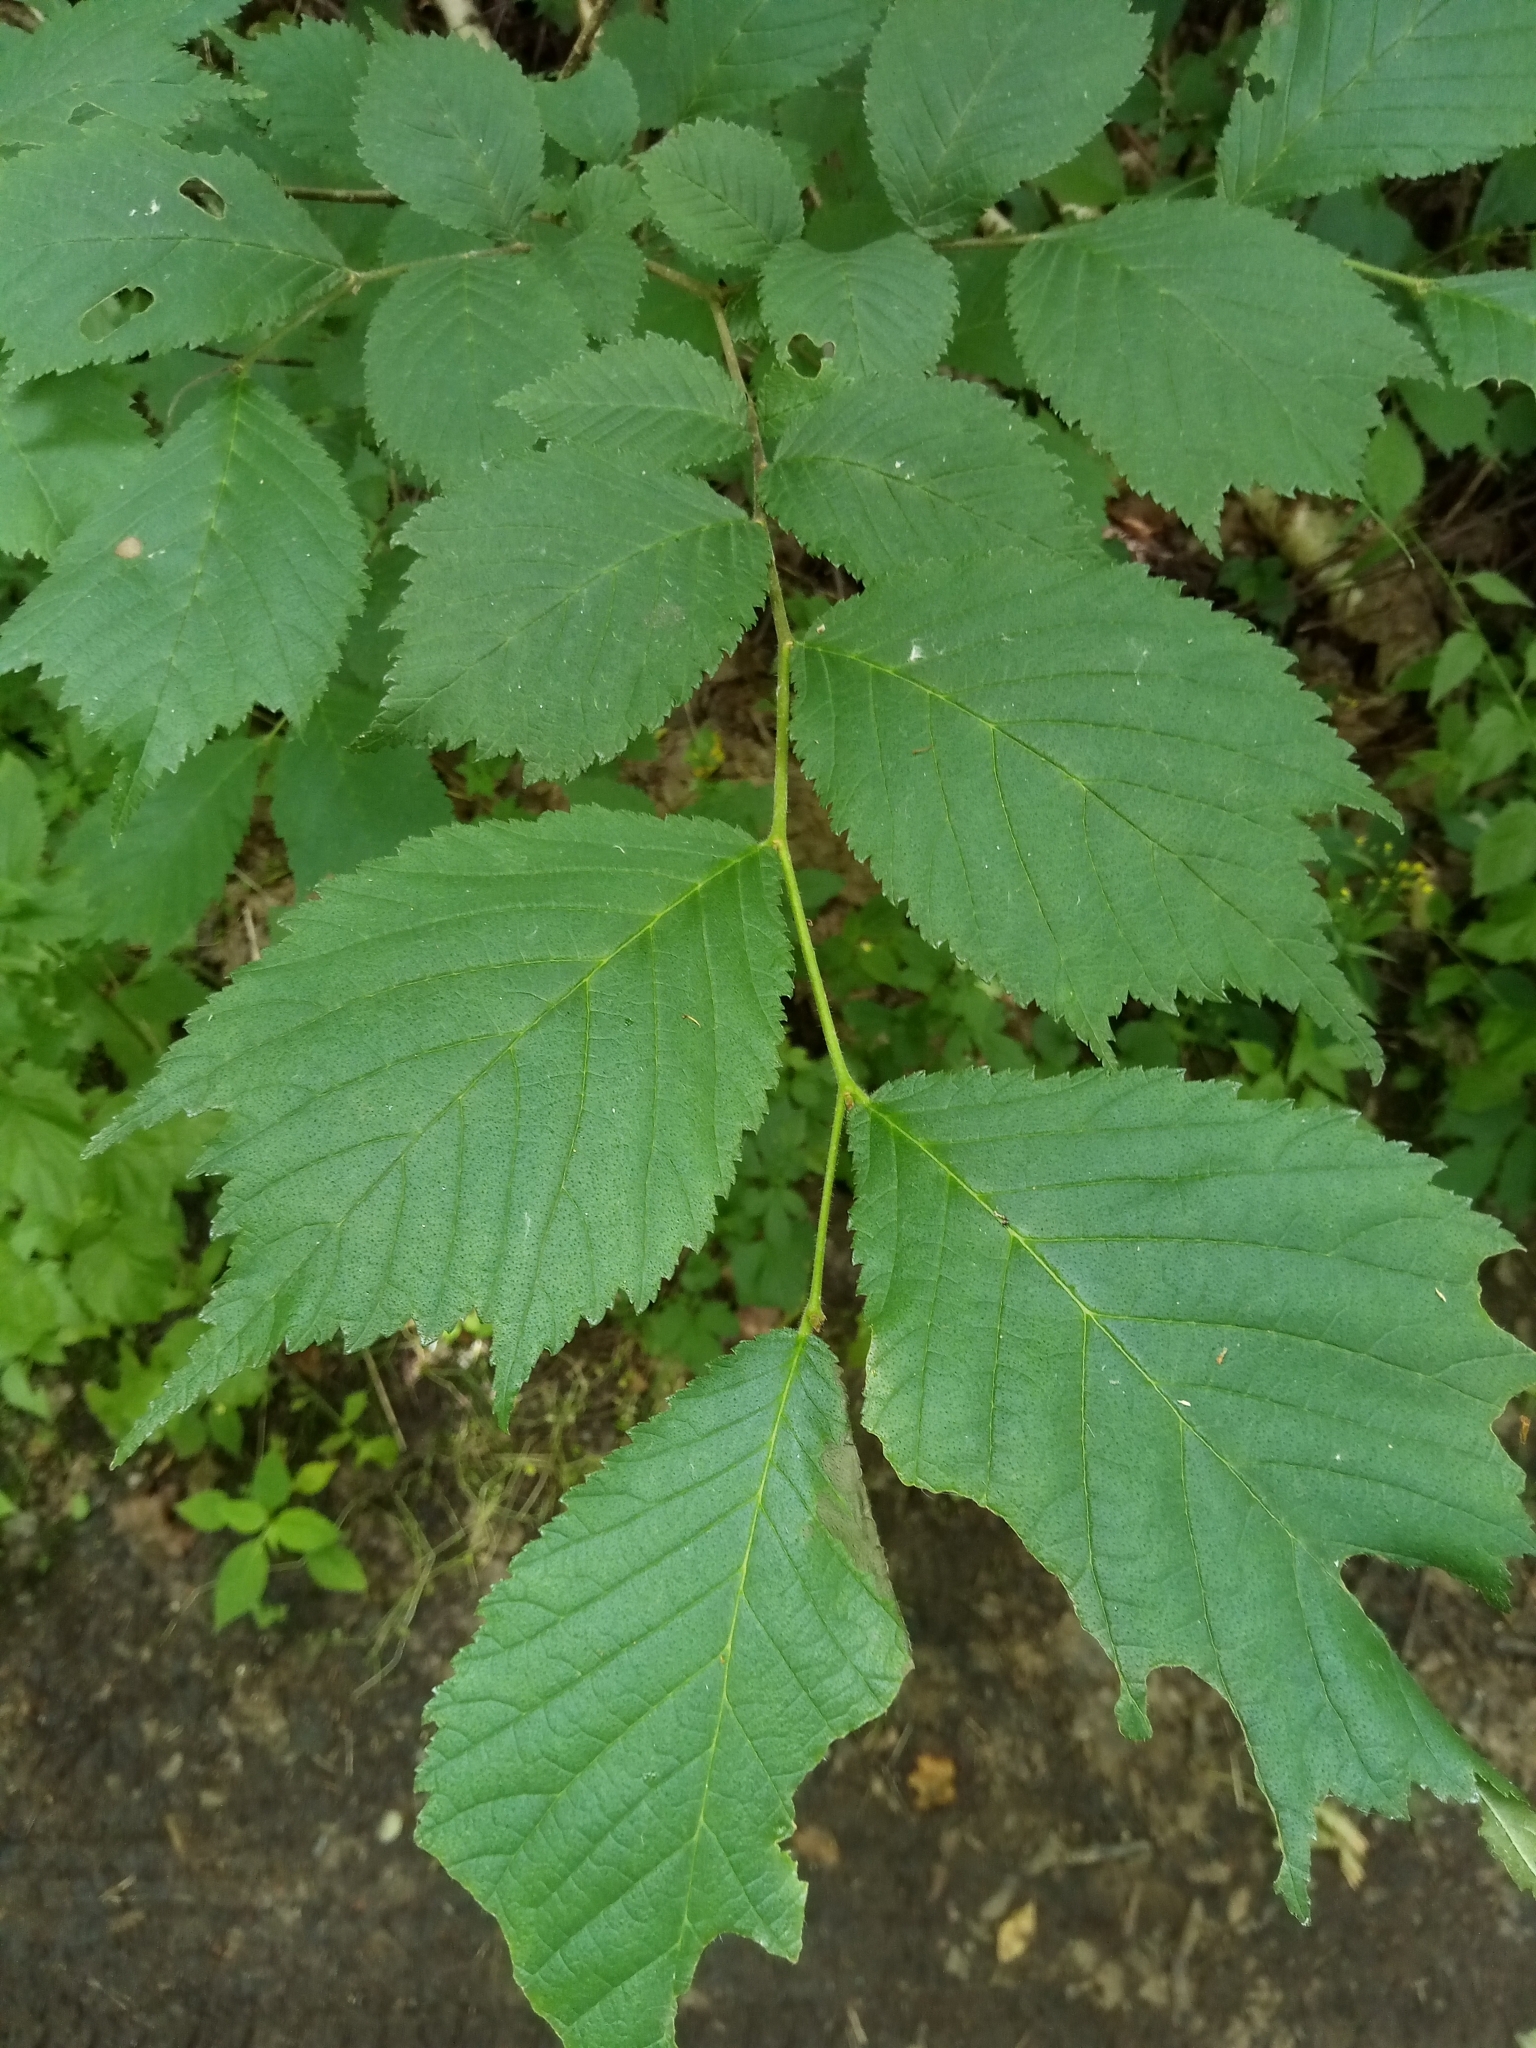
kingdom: Plantae
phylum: Tracheophyta
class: Magnoliopsida
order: Rosales
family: Ulmaceae
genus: Ulmus
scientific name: Ulmus glabra
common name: Wych elm
